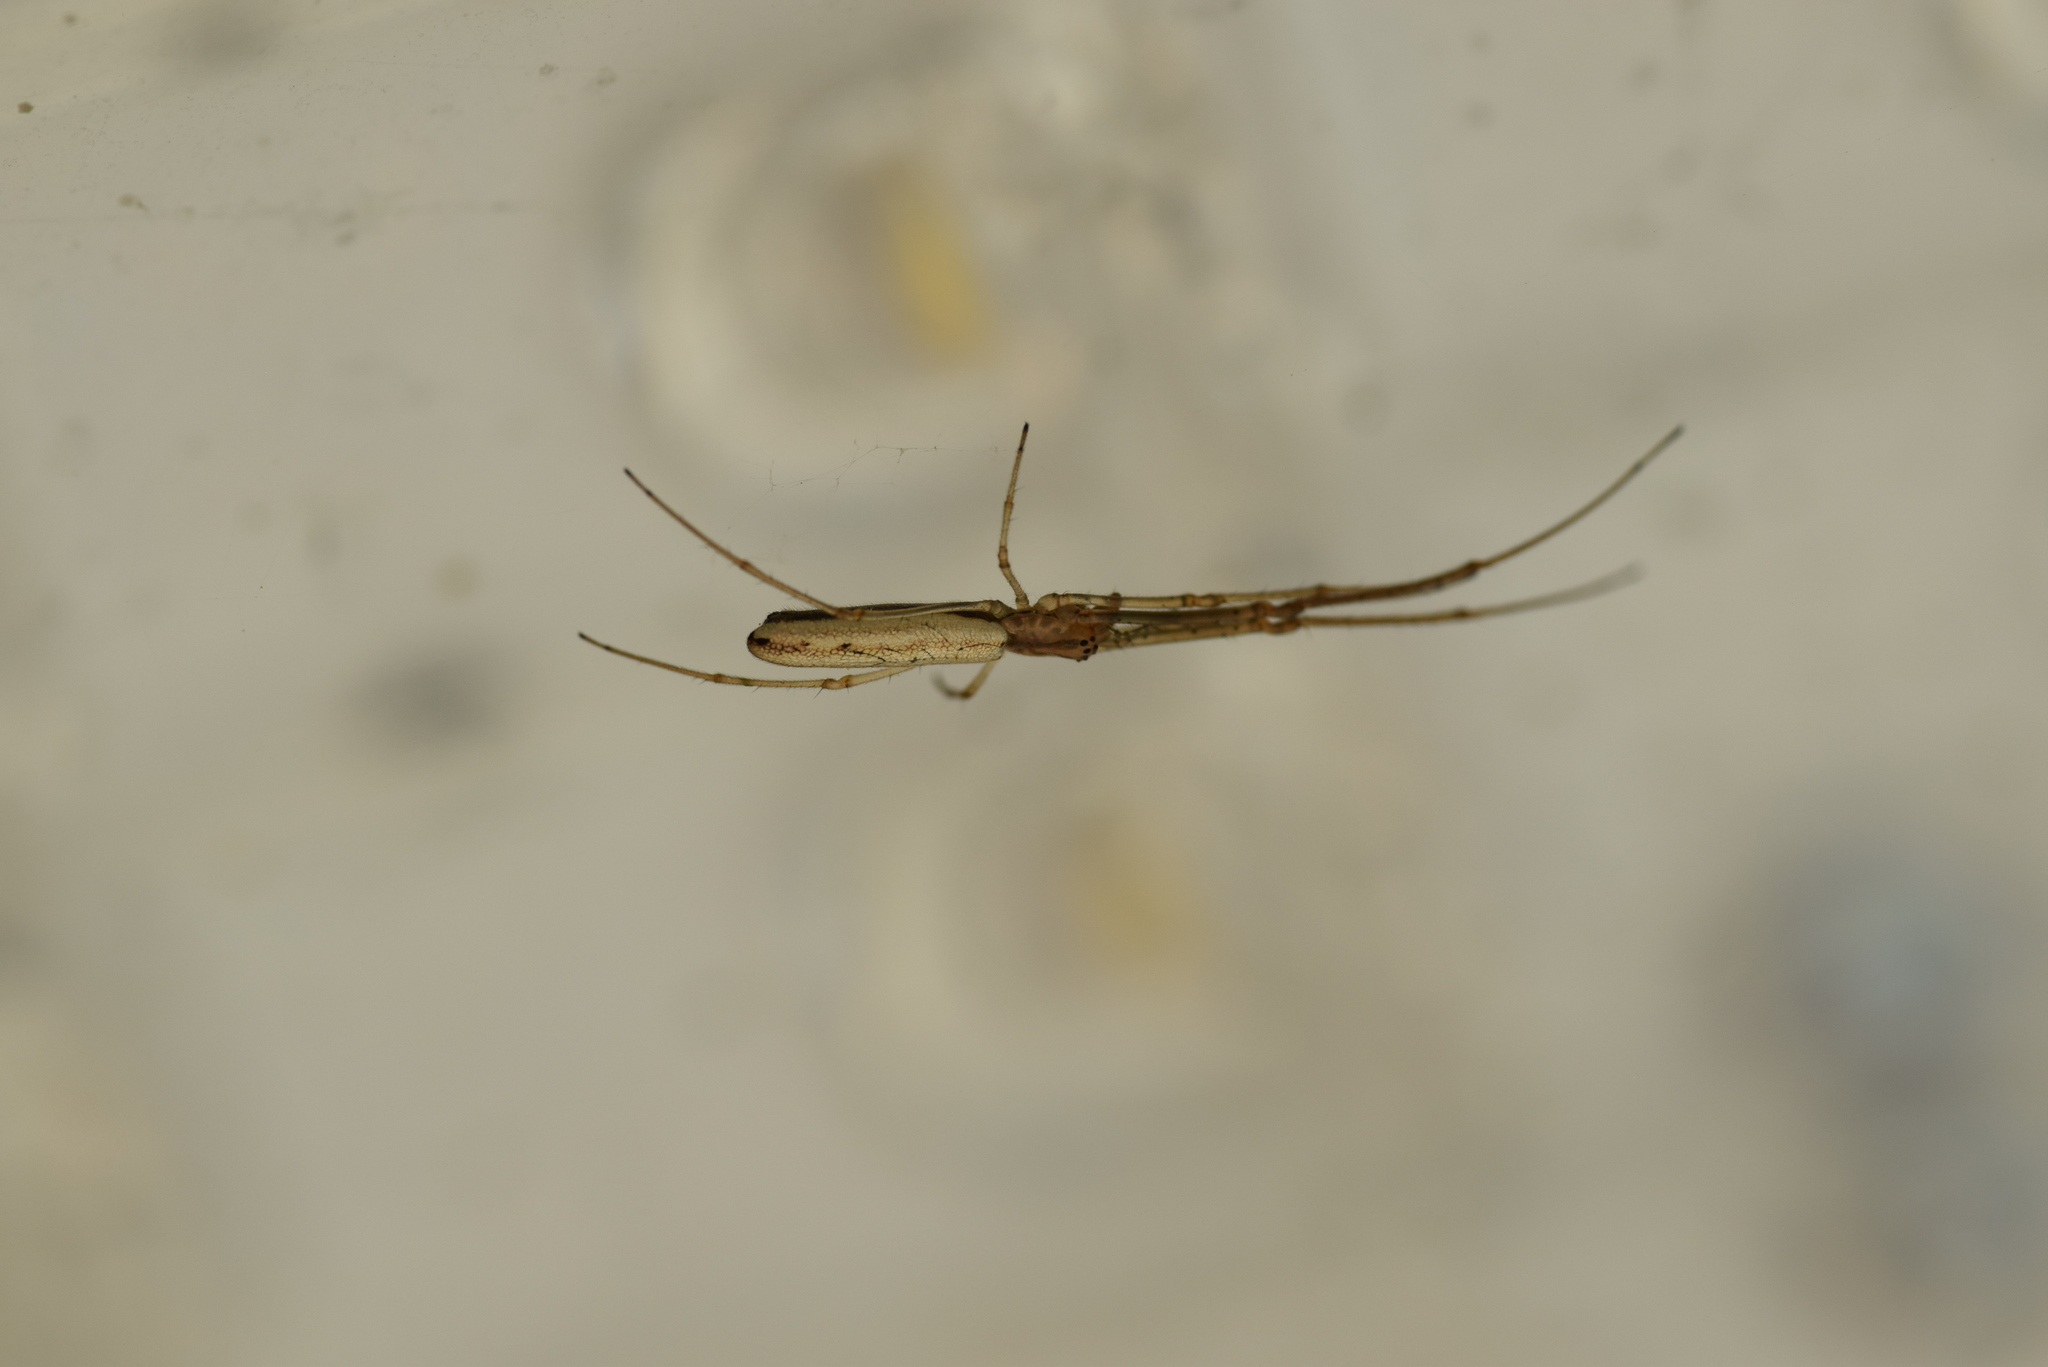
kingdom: Animalia
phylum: Arthropoda
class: Arachnida
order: Araneae
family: Tetragnathidae
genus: Tetragnatha
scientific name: Tetragnatha
